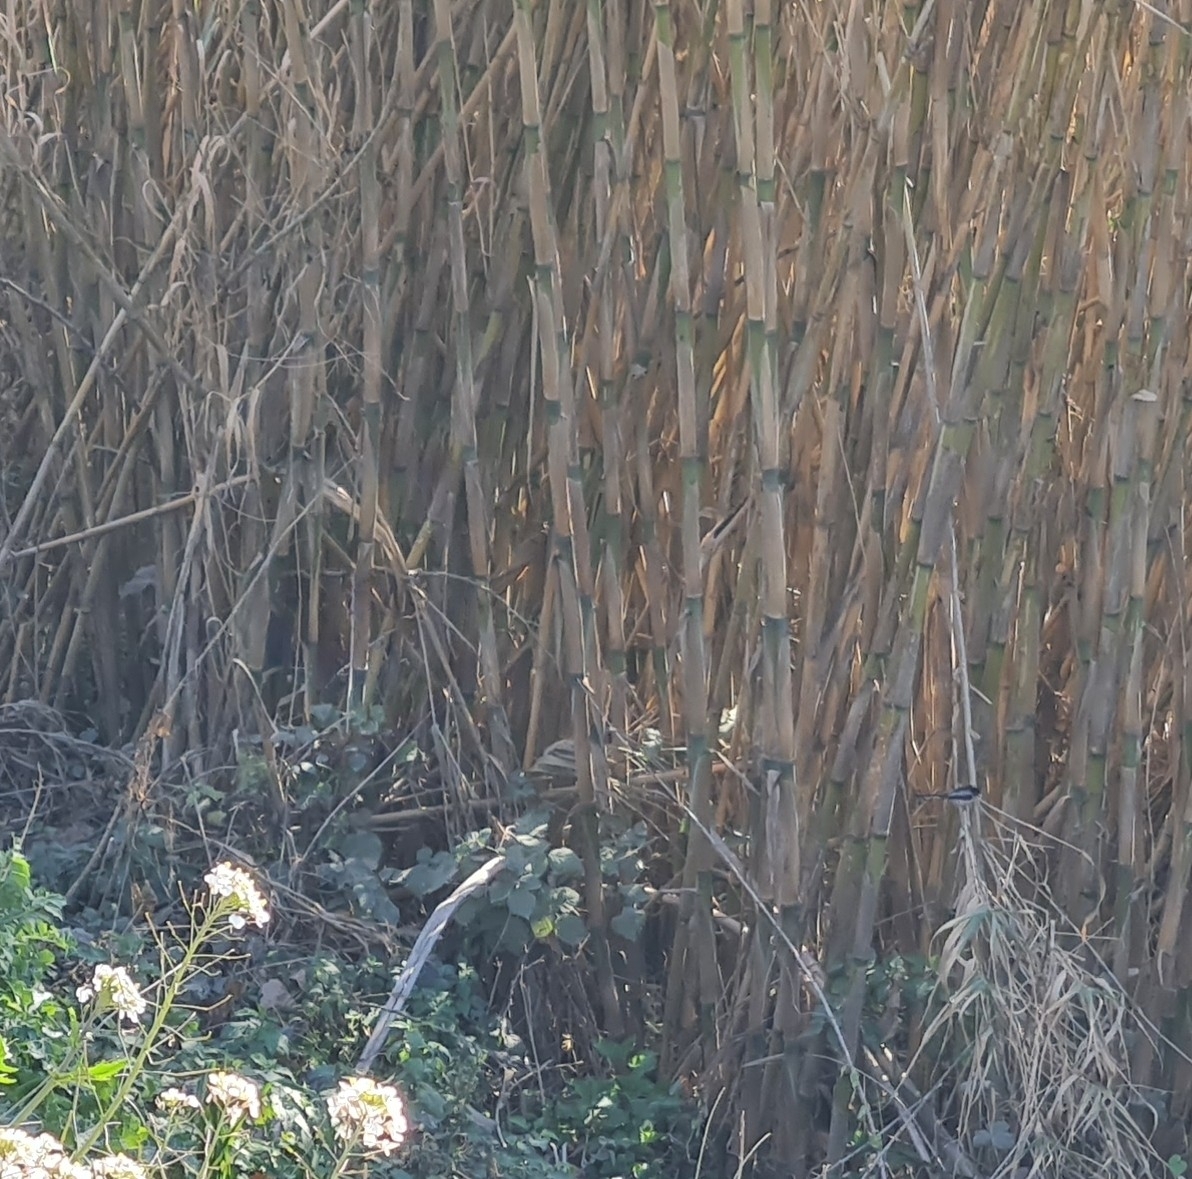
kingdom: Animalia
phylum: Chordata
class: Aves
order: Passeriformes
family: Aegithalidae
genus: Aegithalos
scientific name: Aegithalos caudatus
